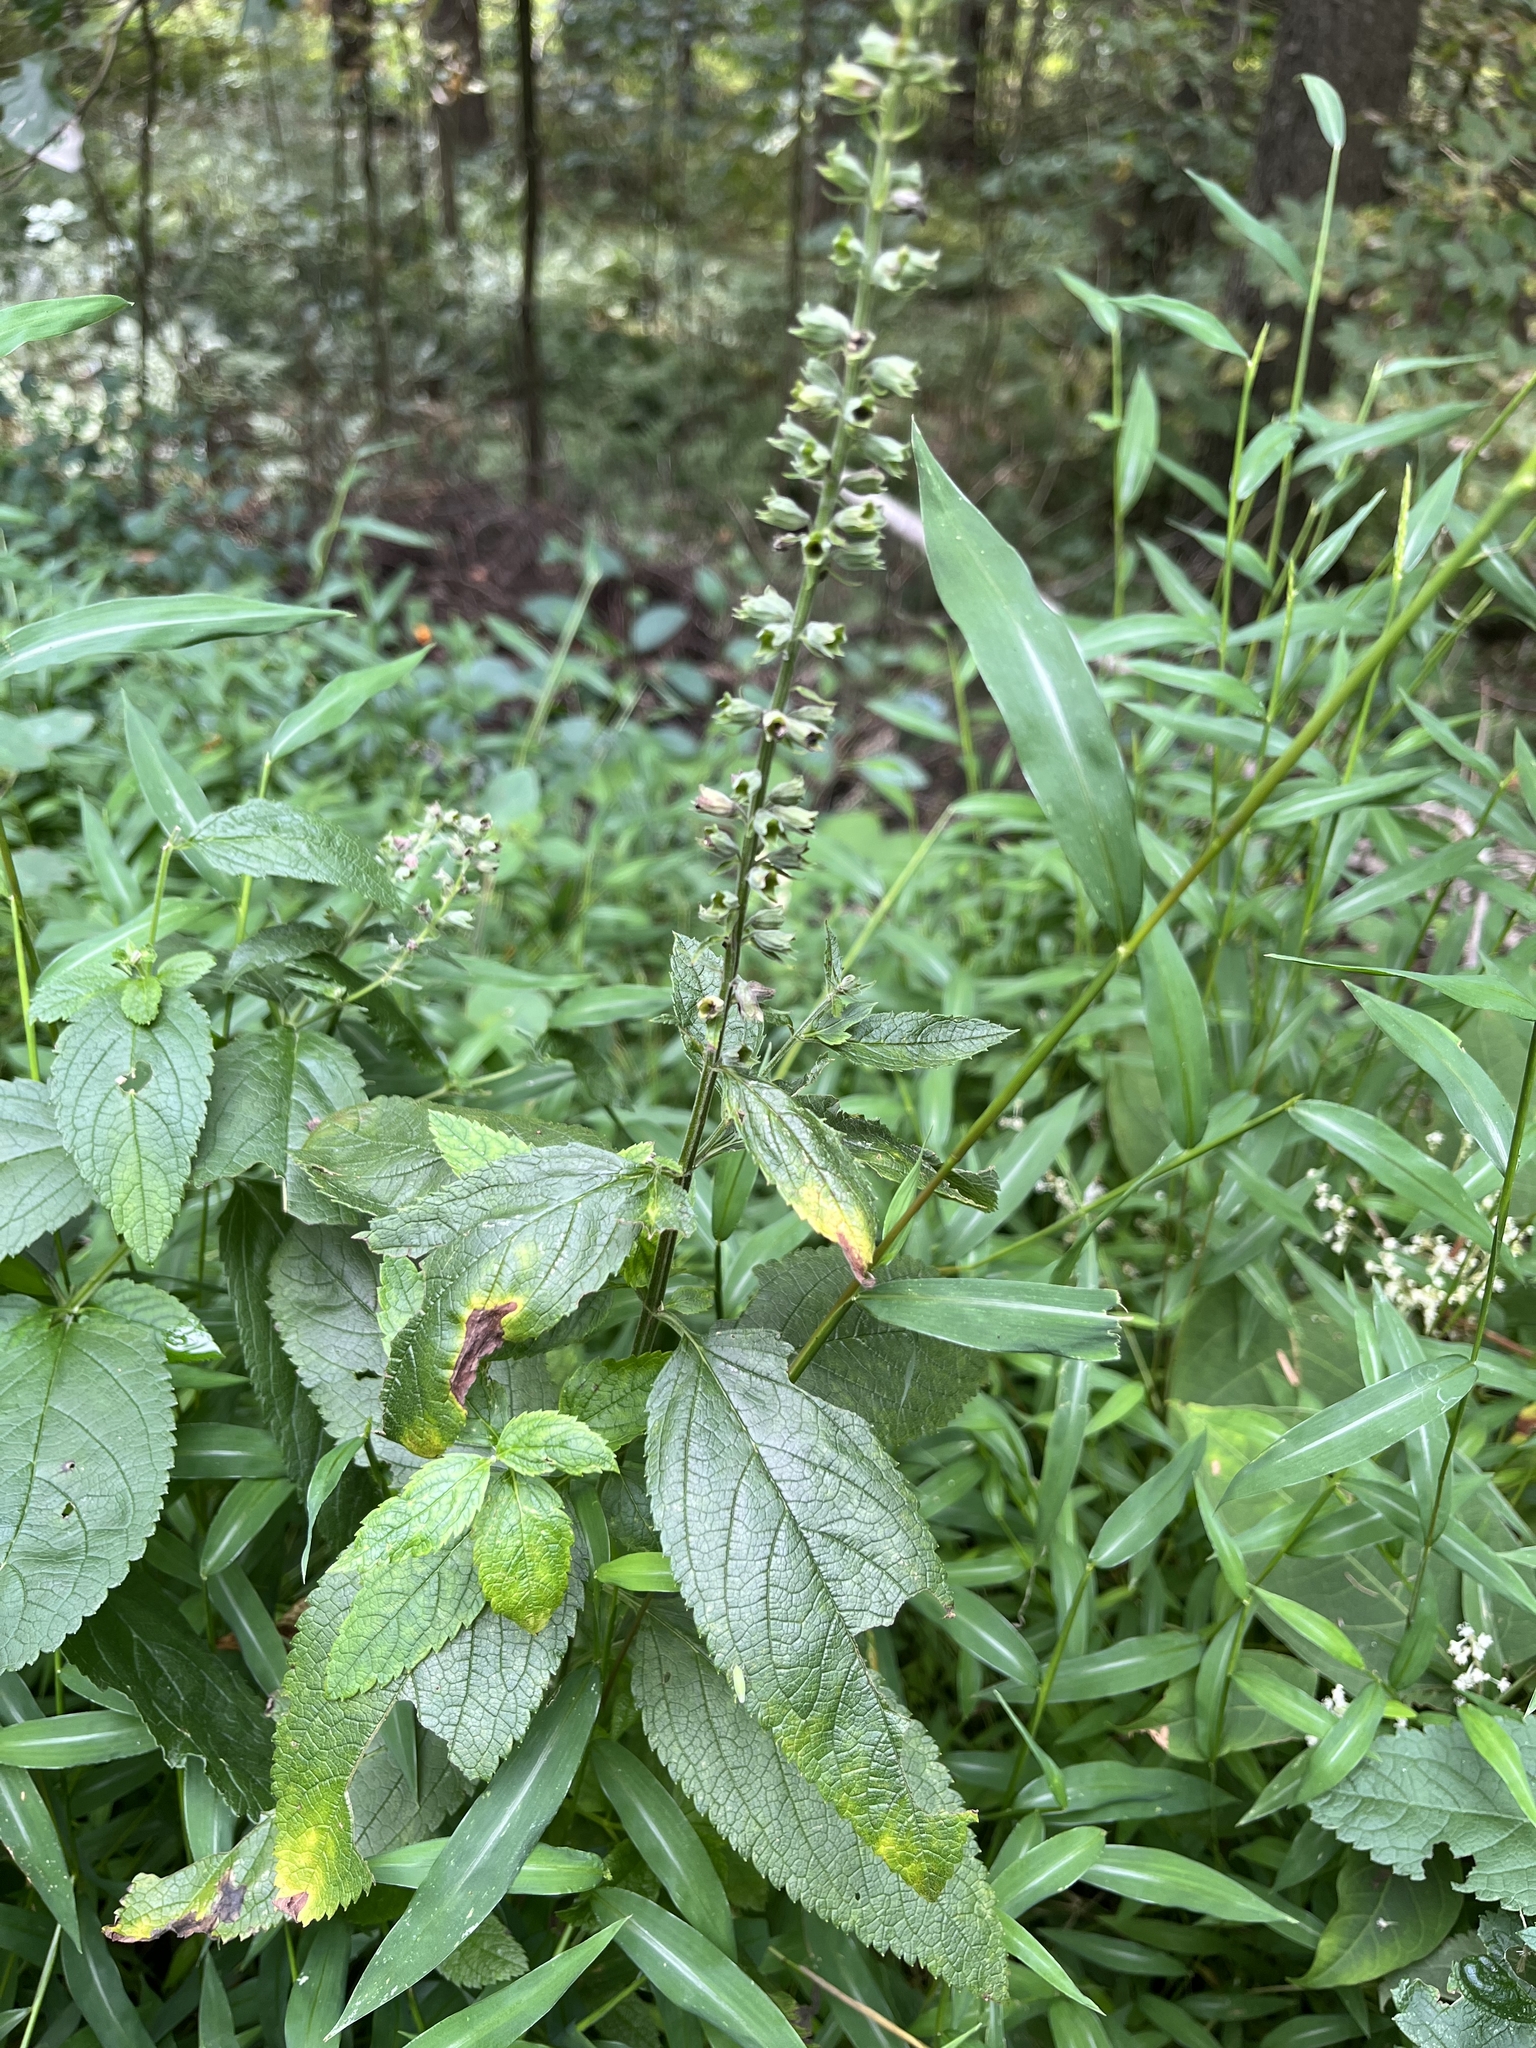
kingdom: Plantae
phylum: Tracheophyta
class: Magnoliopsida
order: Lamiales
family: Lamiaceae
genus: Teucrium
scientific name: Teucrium canadense
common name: American germander
